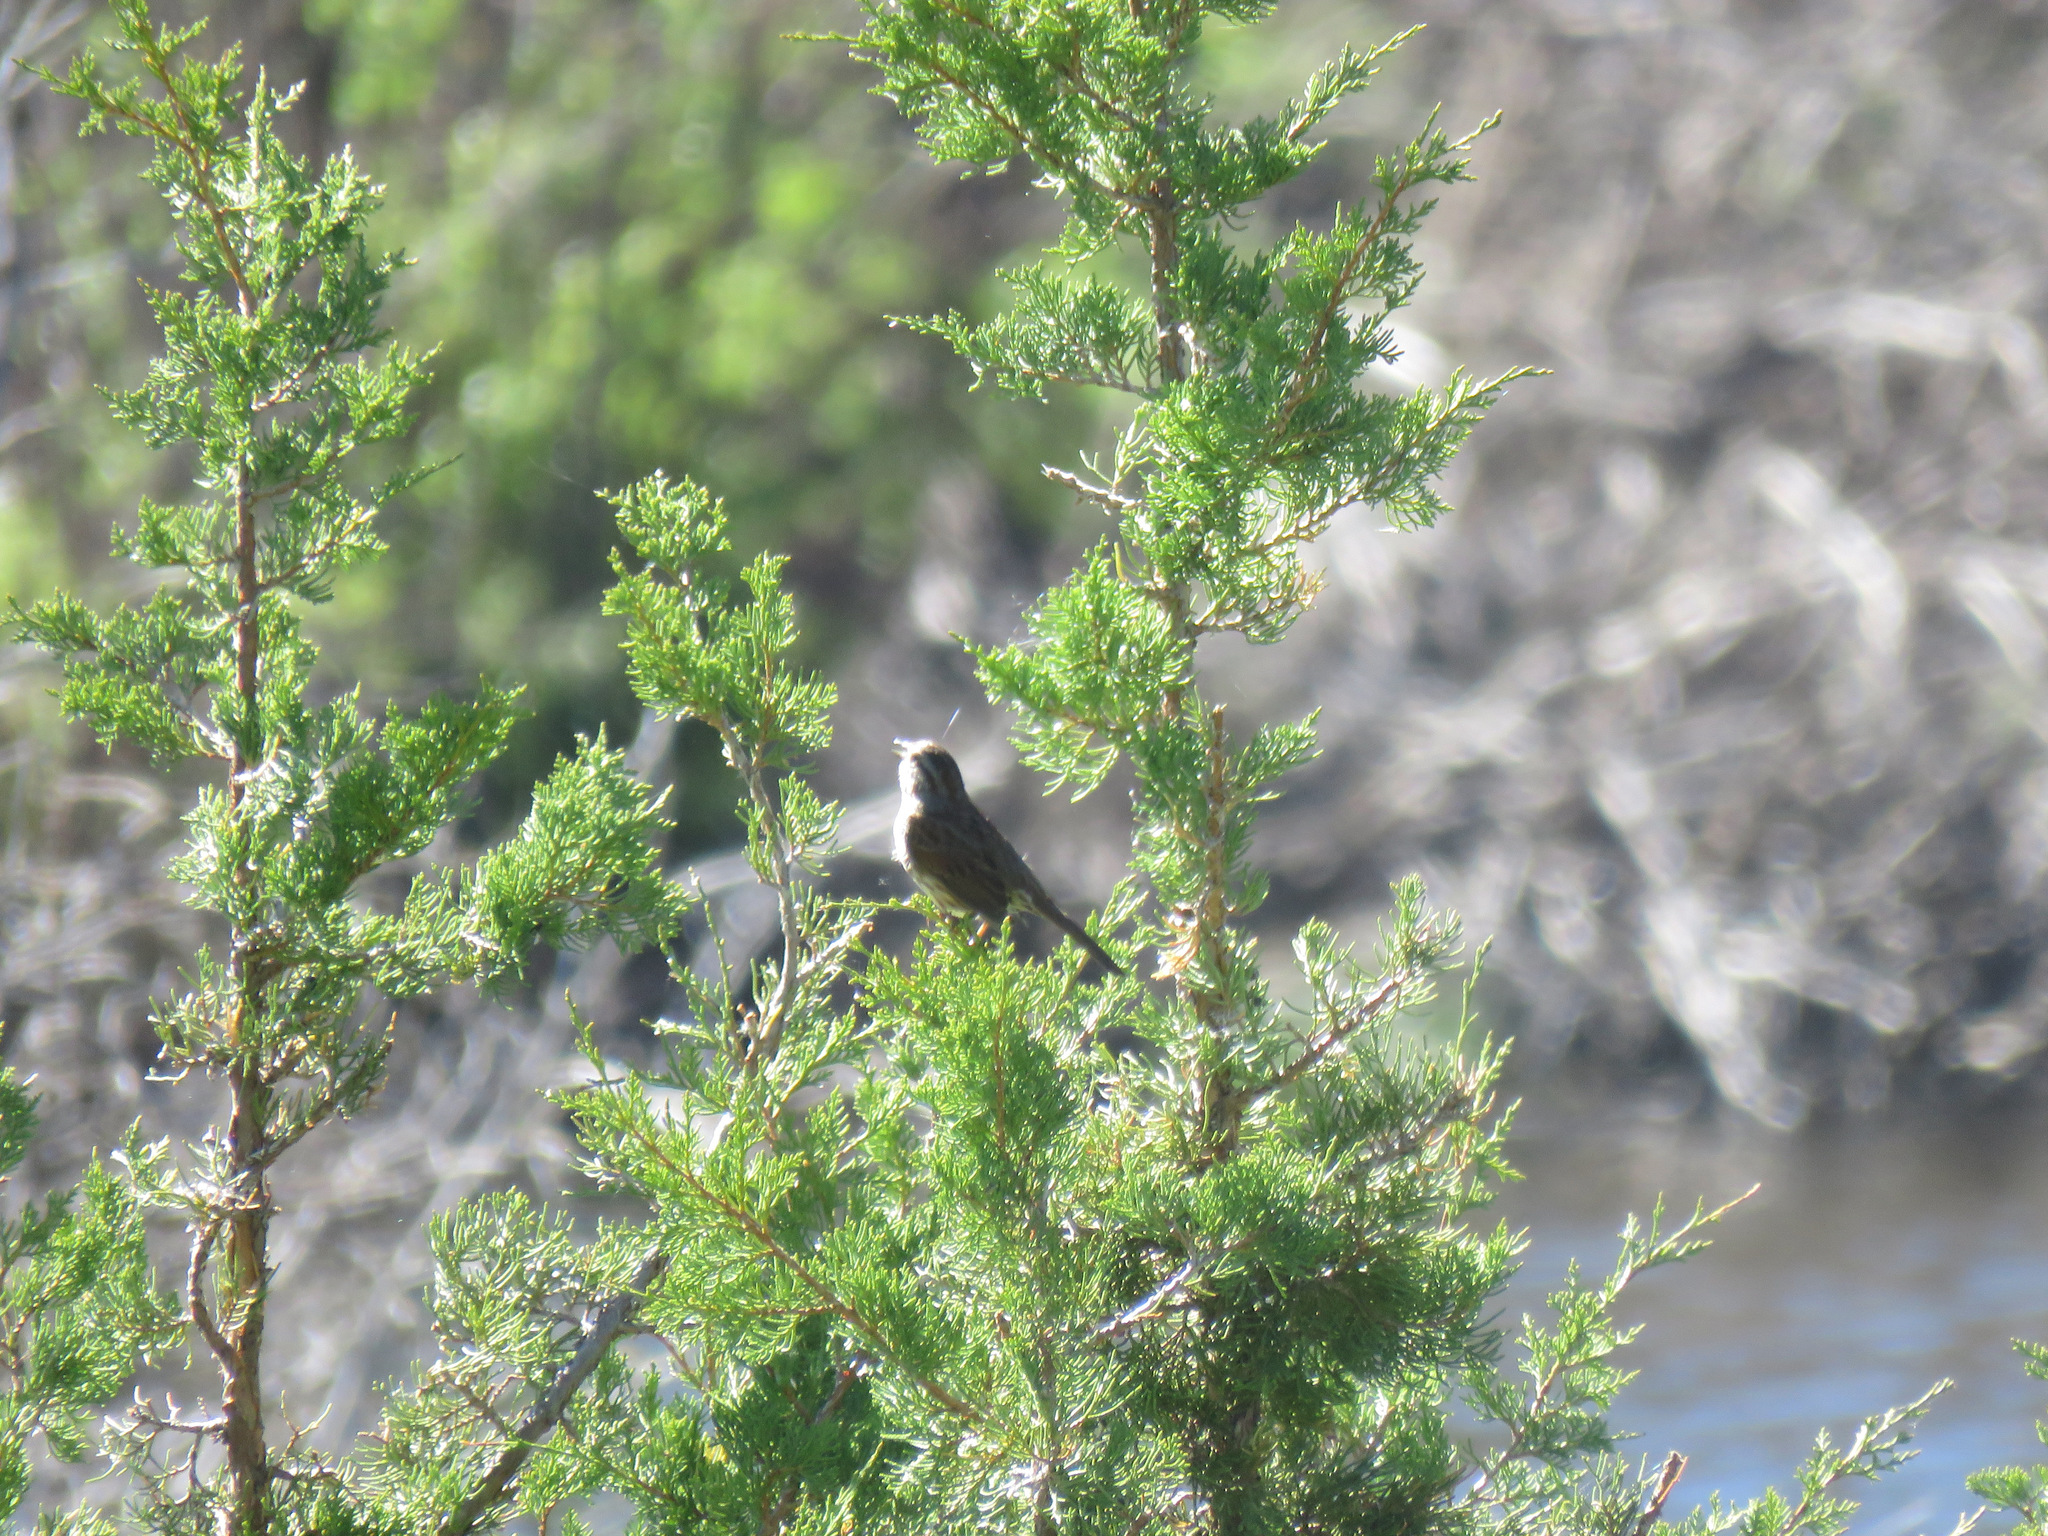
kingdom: Animalia
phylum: Chordata
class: Aves
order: Passeriformes
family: Passerellidae
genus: Melospiza
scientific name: Melospiza melodia
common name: Song sparrow
